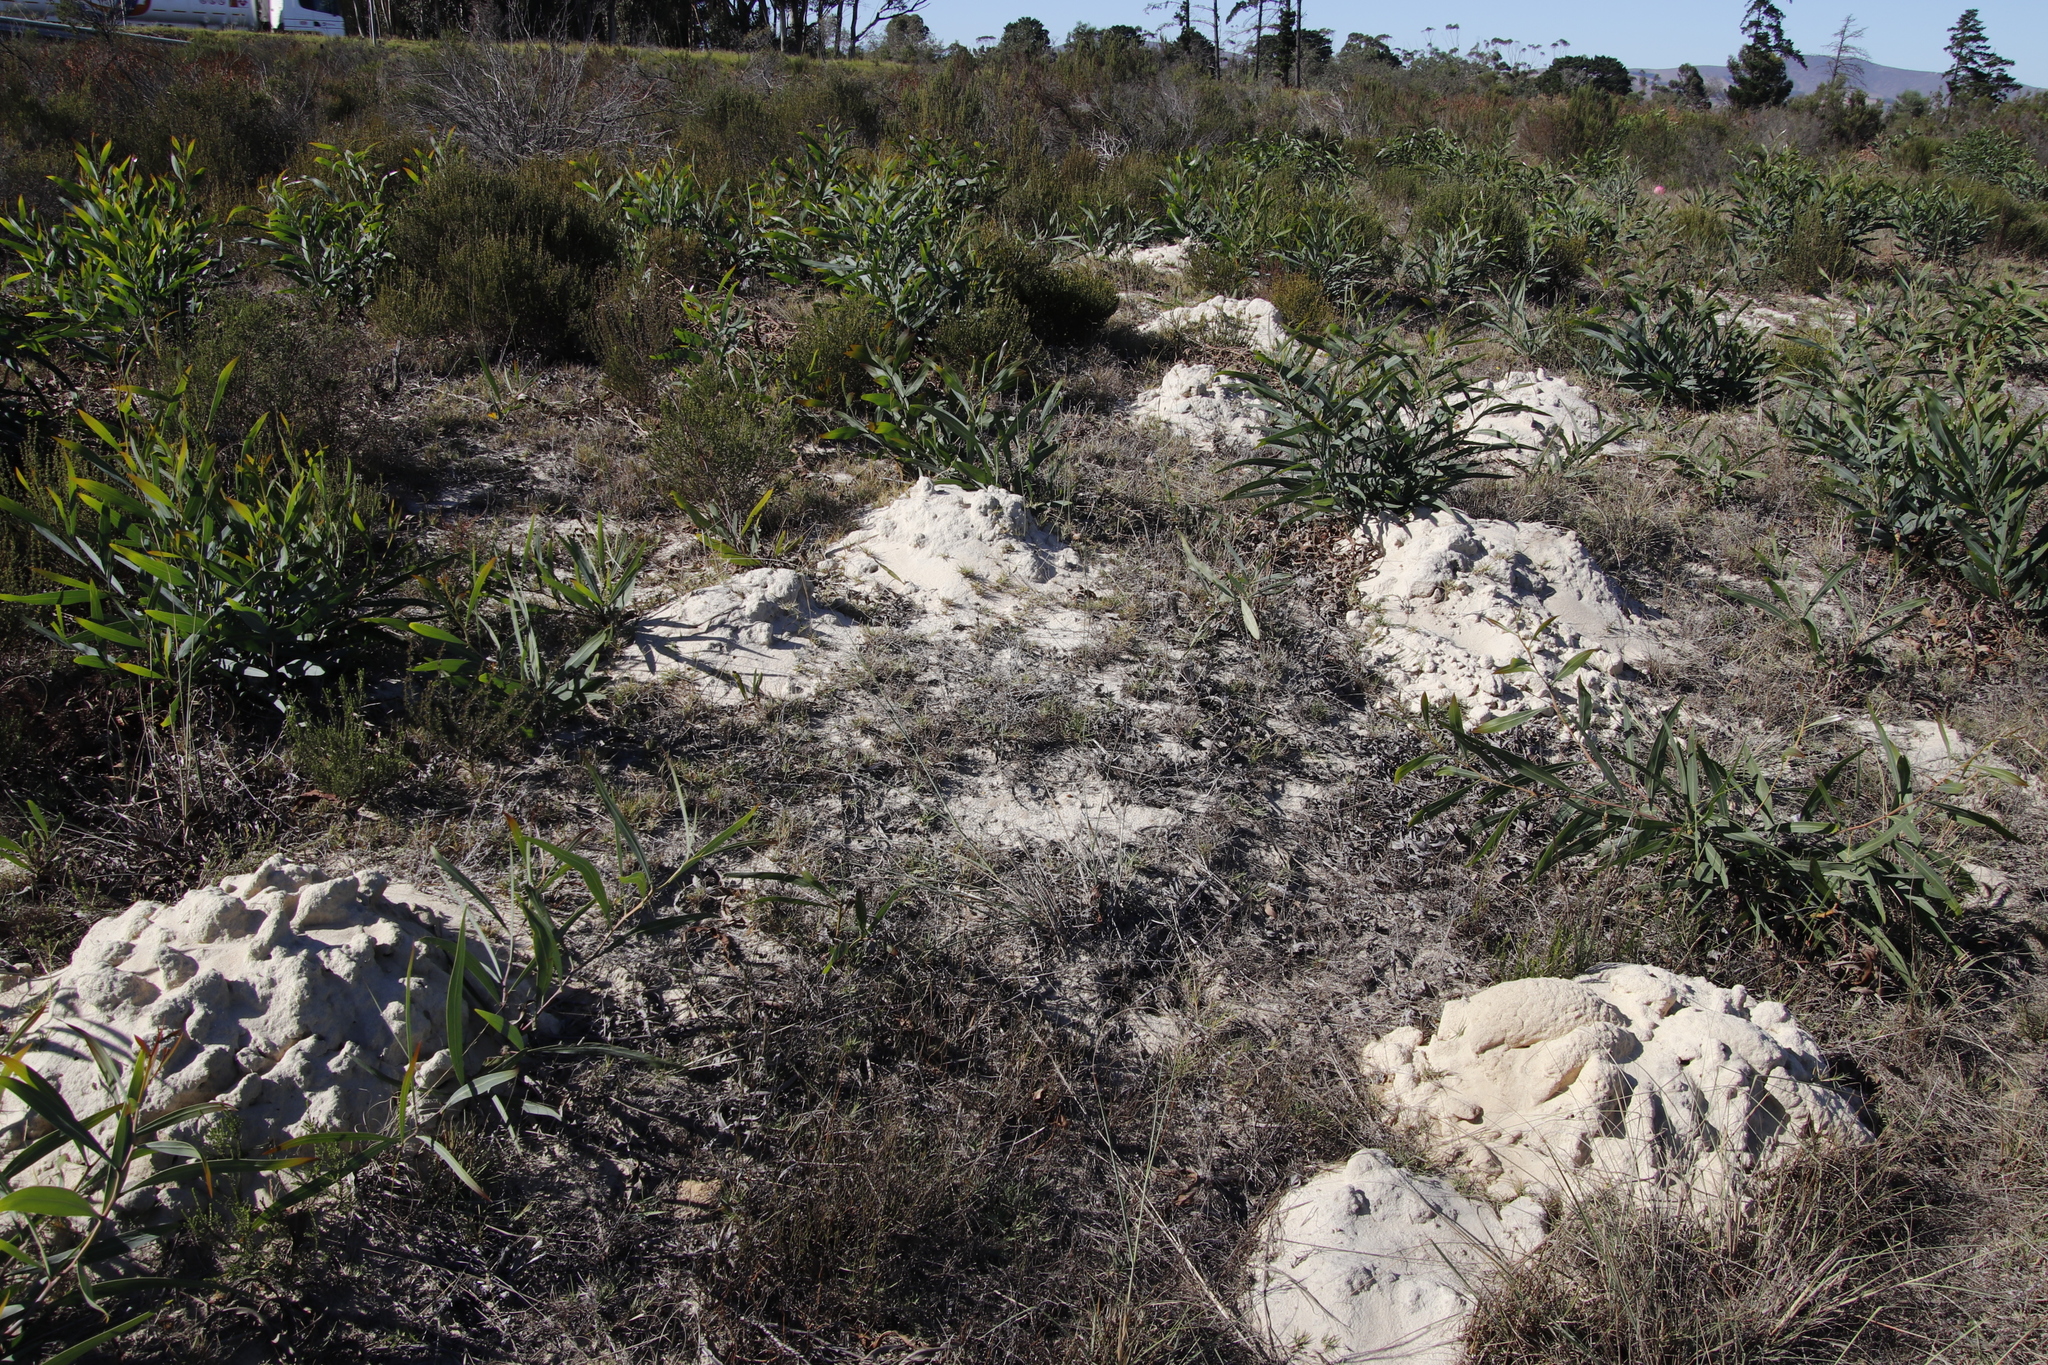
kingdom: Animalia
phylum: Chordata
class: Mammalia
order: Rodentia
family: Bathyergidae
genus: Bathyergus
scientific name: Bathyergus suillus
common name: Cape dune mole rat
